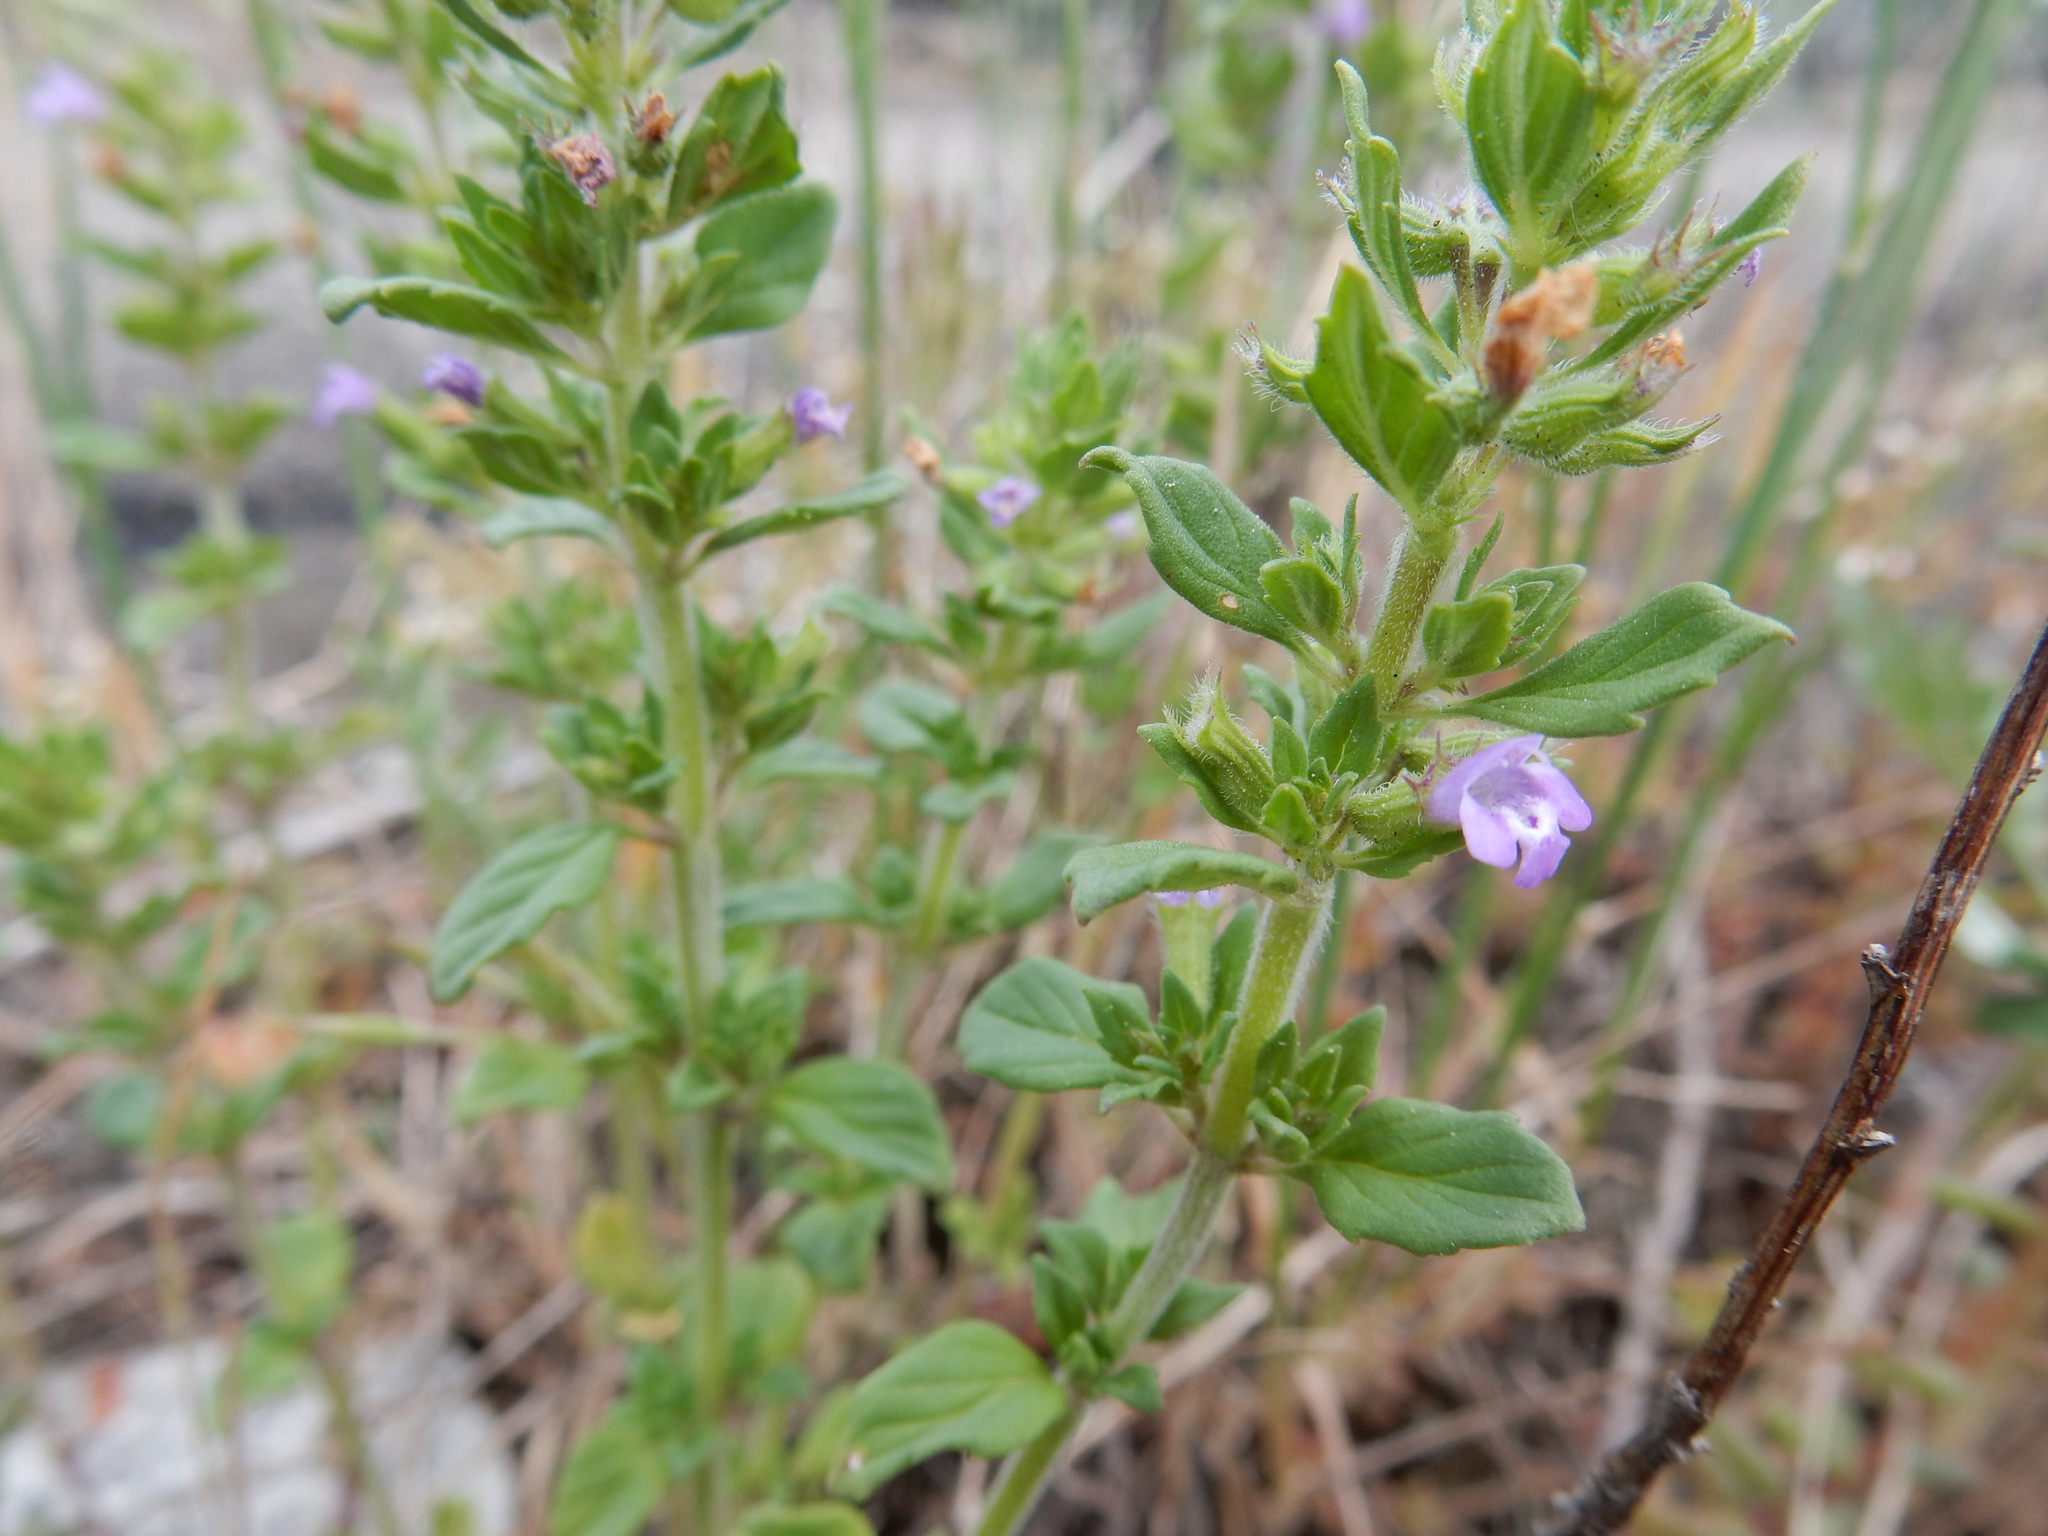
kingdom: Plantae
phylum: Tracheophyta
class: Magnoliopsida
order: Lamiales
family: Lamiaceae
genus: Clinopodium
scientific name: Clinopodium acinos
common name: Basil thyme
